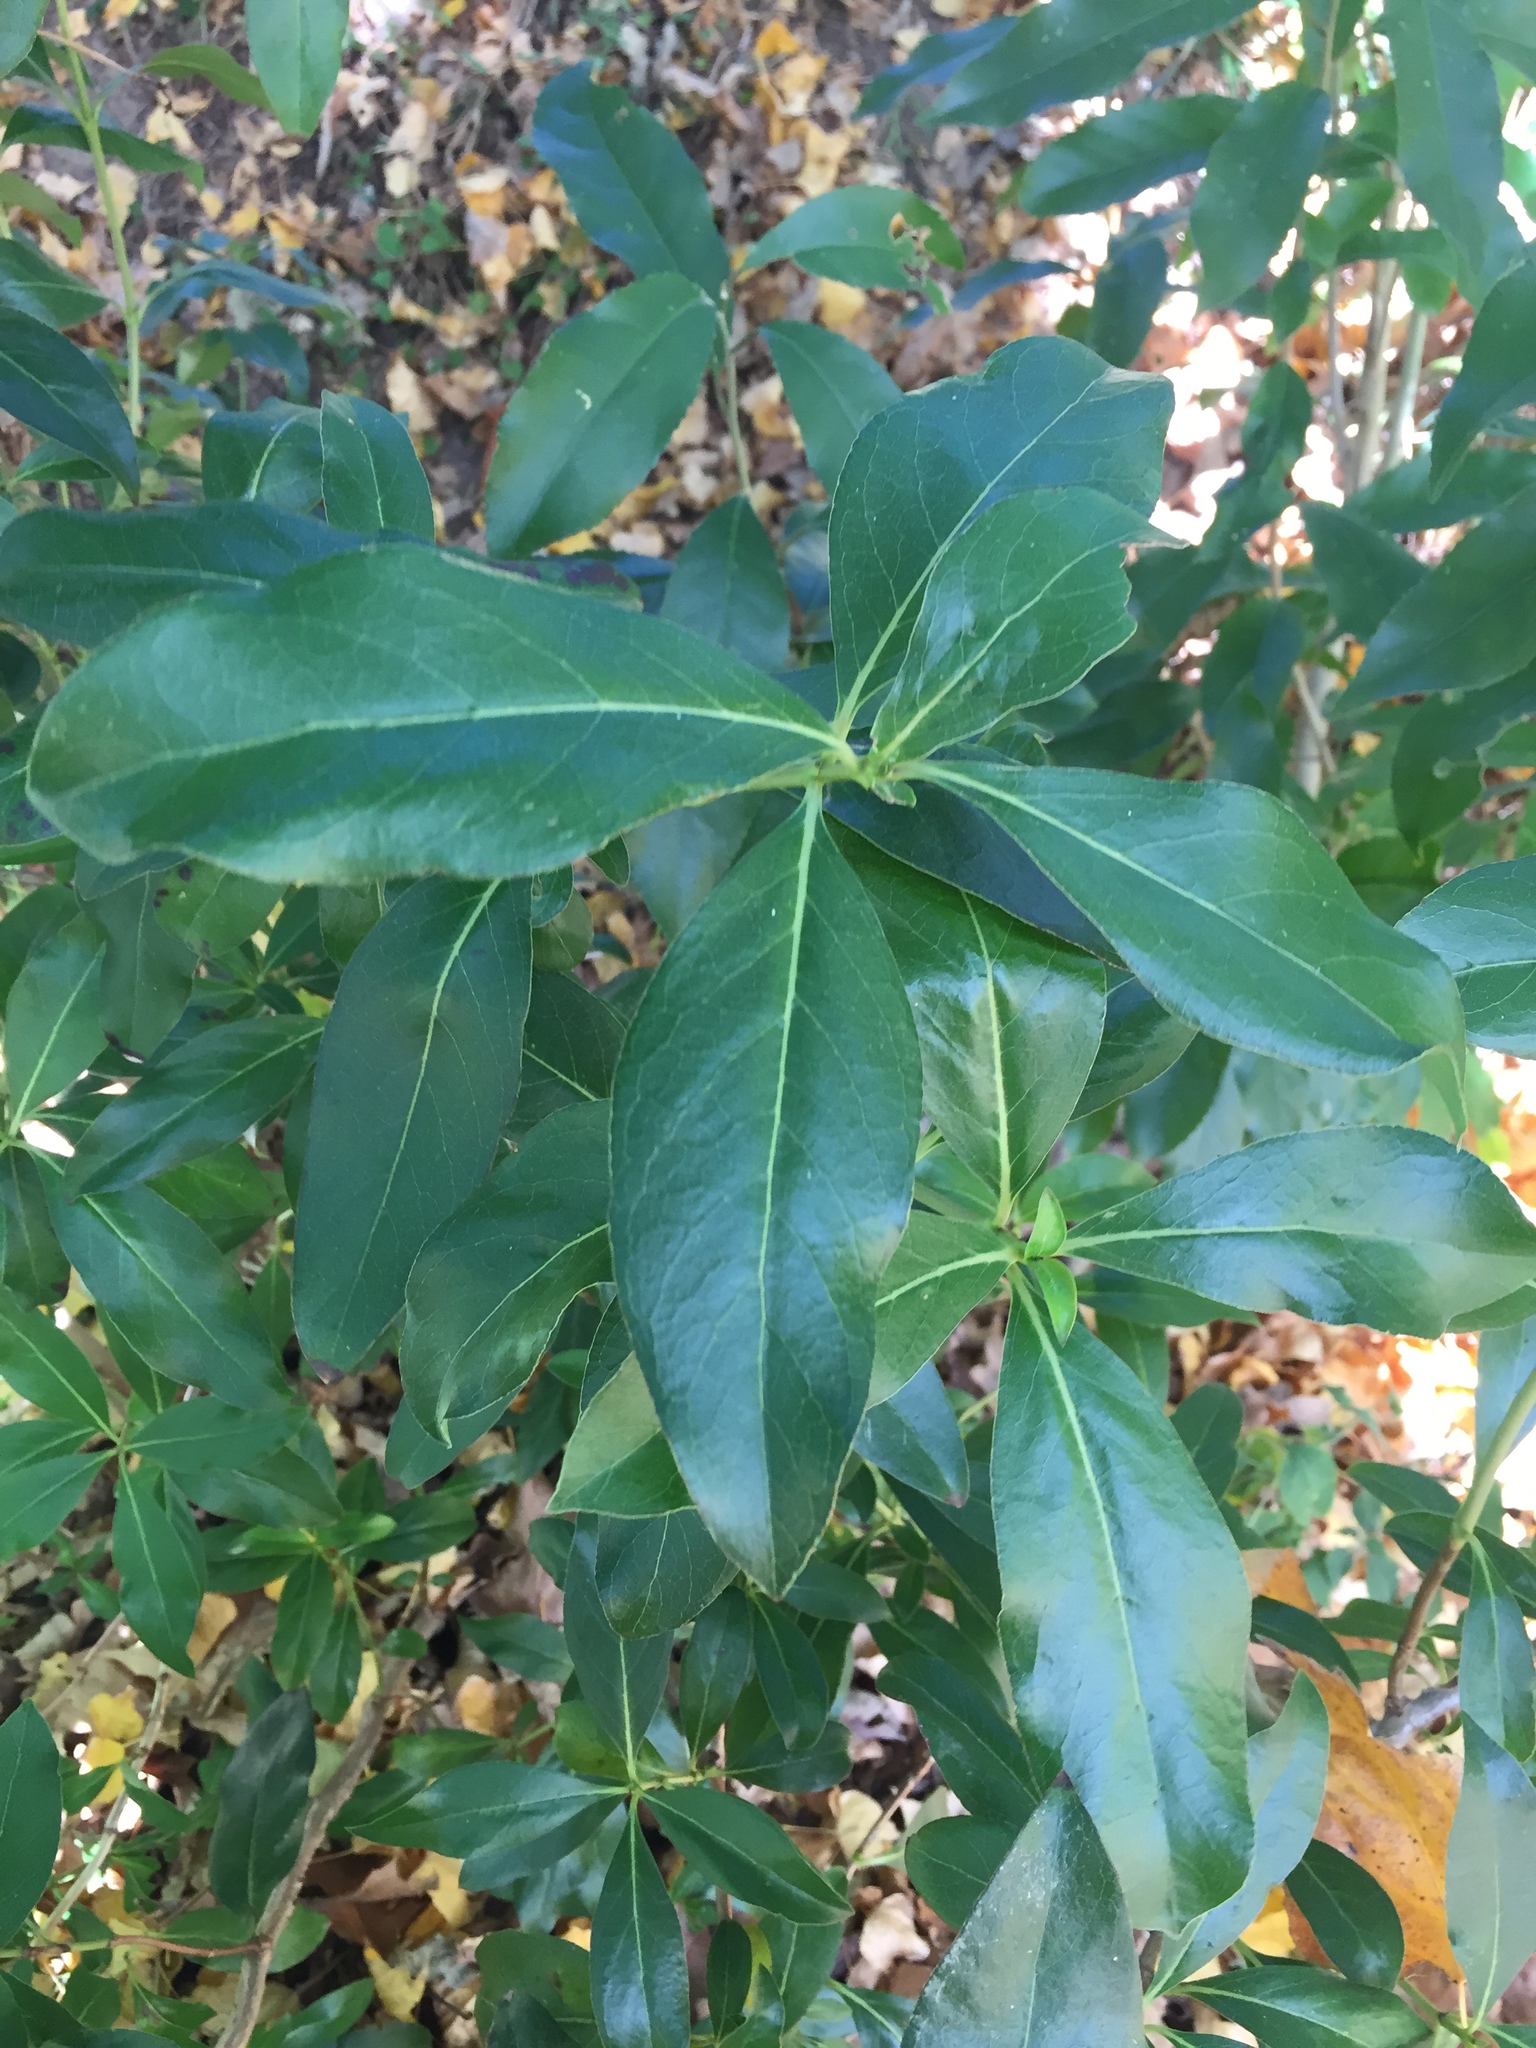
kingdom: Plantae
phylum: Tracheophyta
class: Magnoliopsida
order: Gentianales
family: Rubiaceae
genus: Coprosma
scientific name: Coprosma robusta
